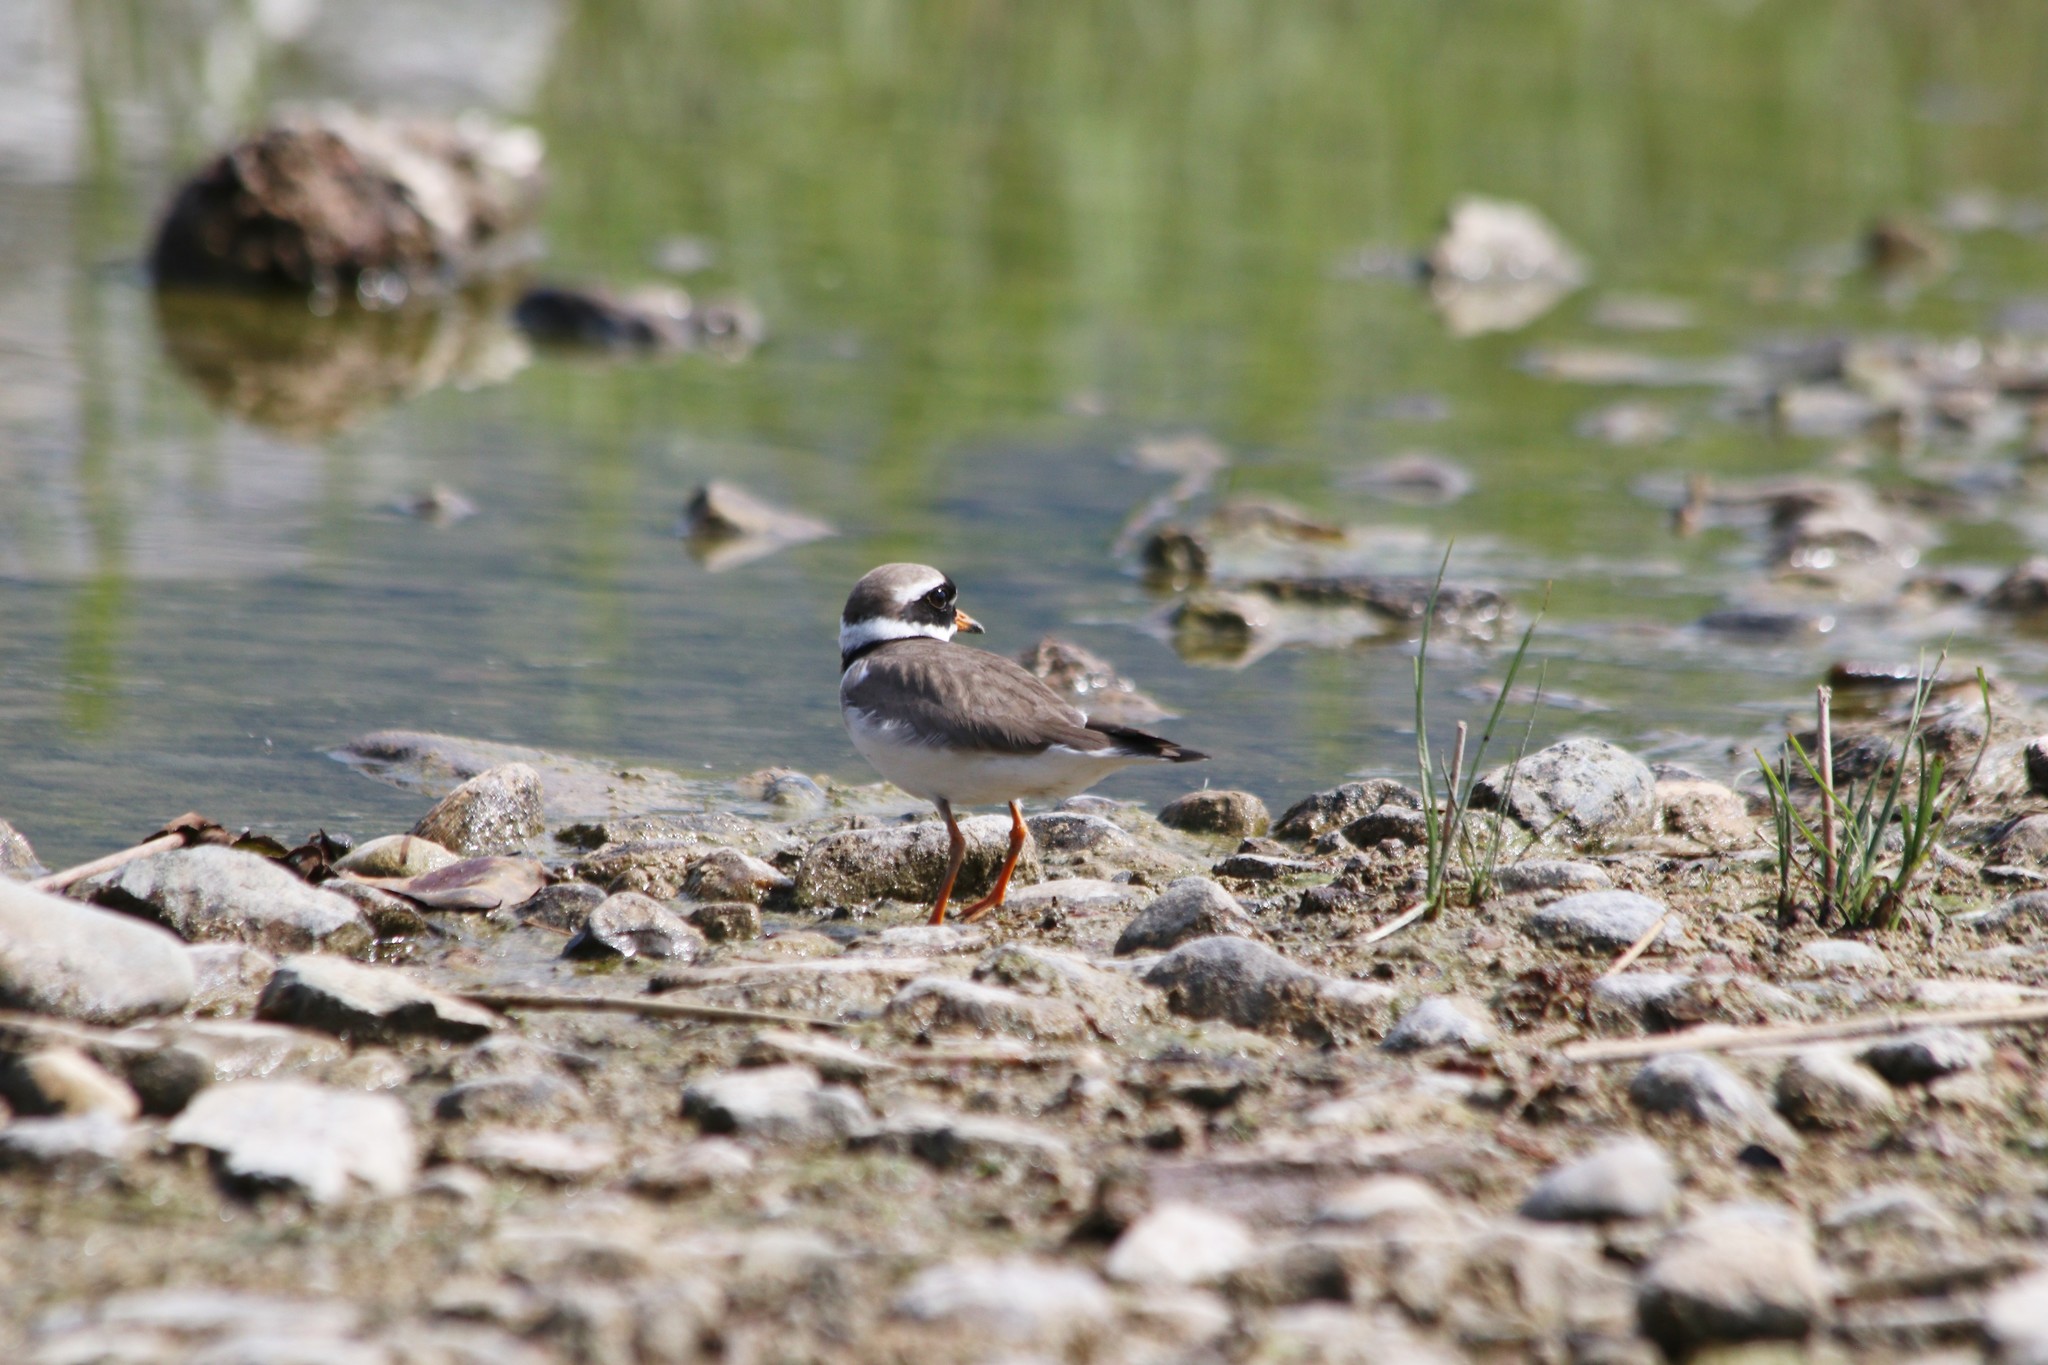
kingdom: Animalia
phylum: Chordata
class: Aves
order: Charadriiformes
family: Charadriidae
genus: Charadrius
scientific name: Charadrius hiaticula
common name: Common ringed plover
